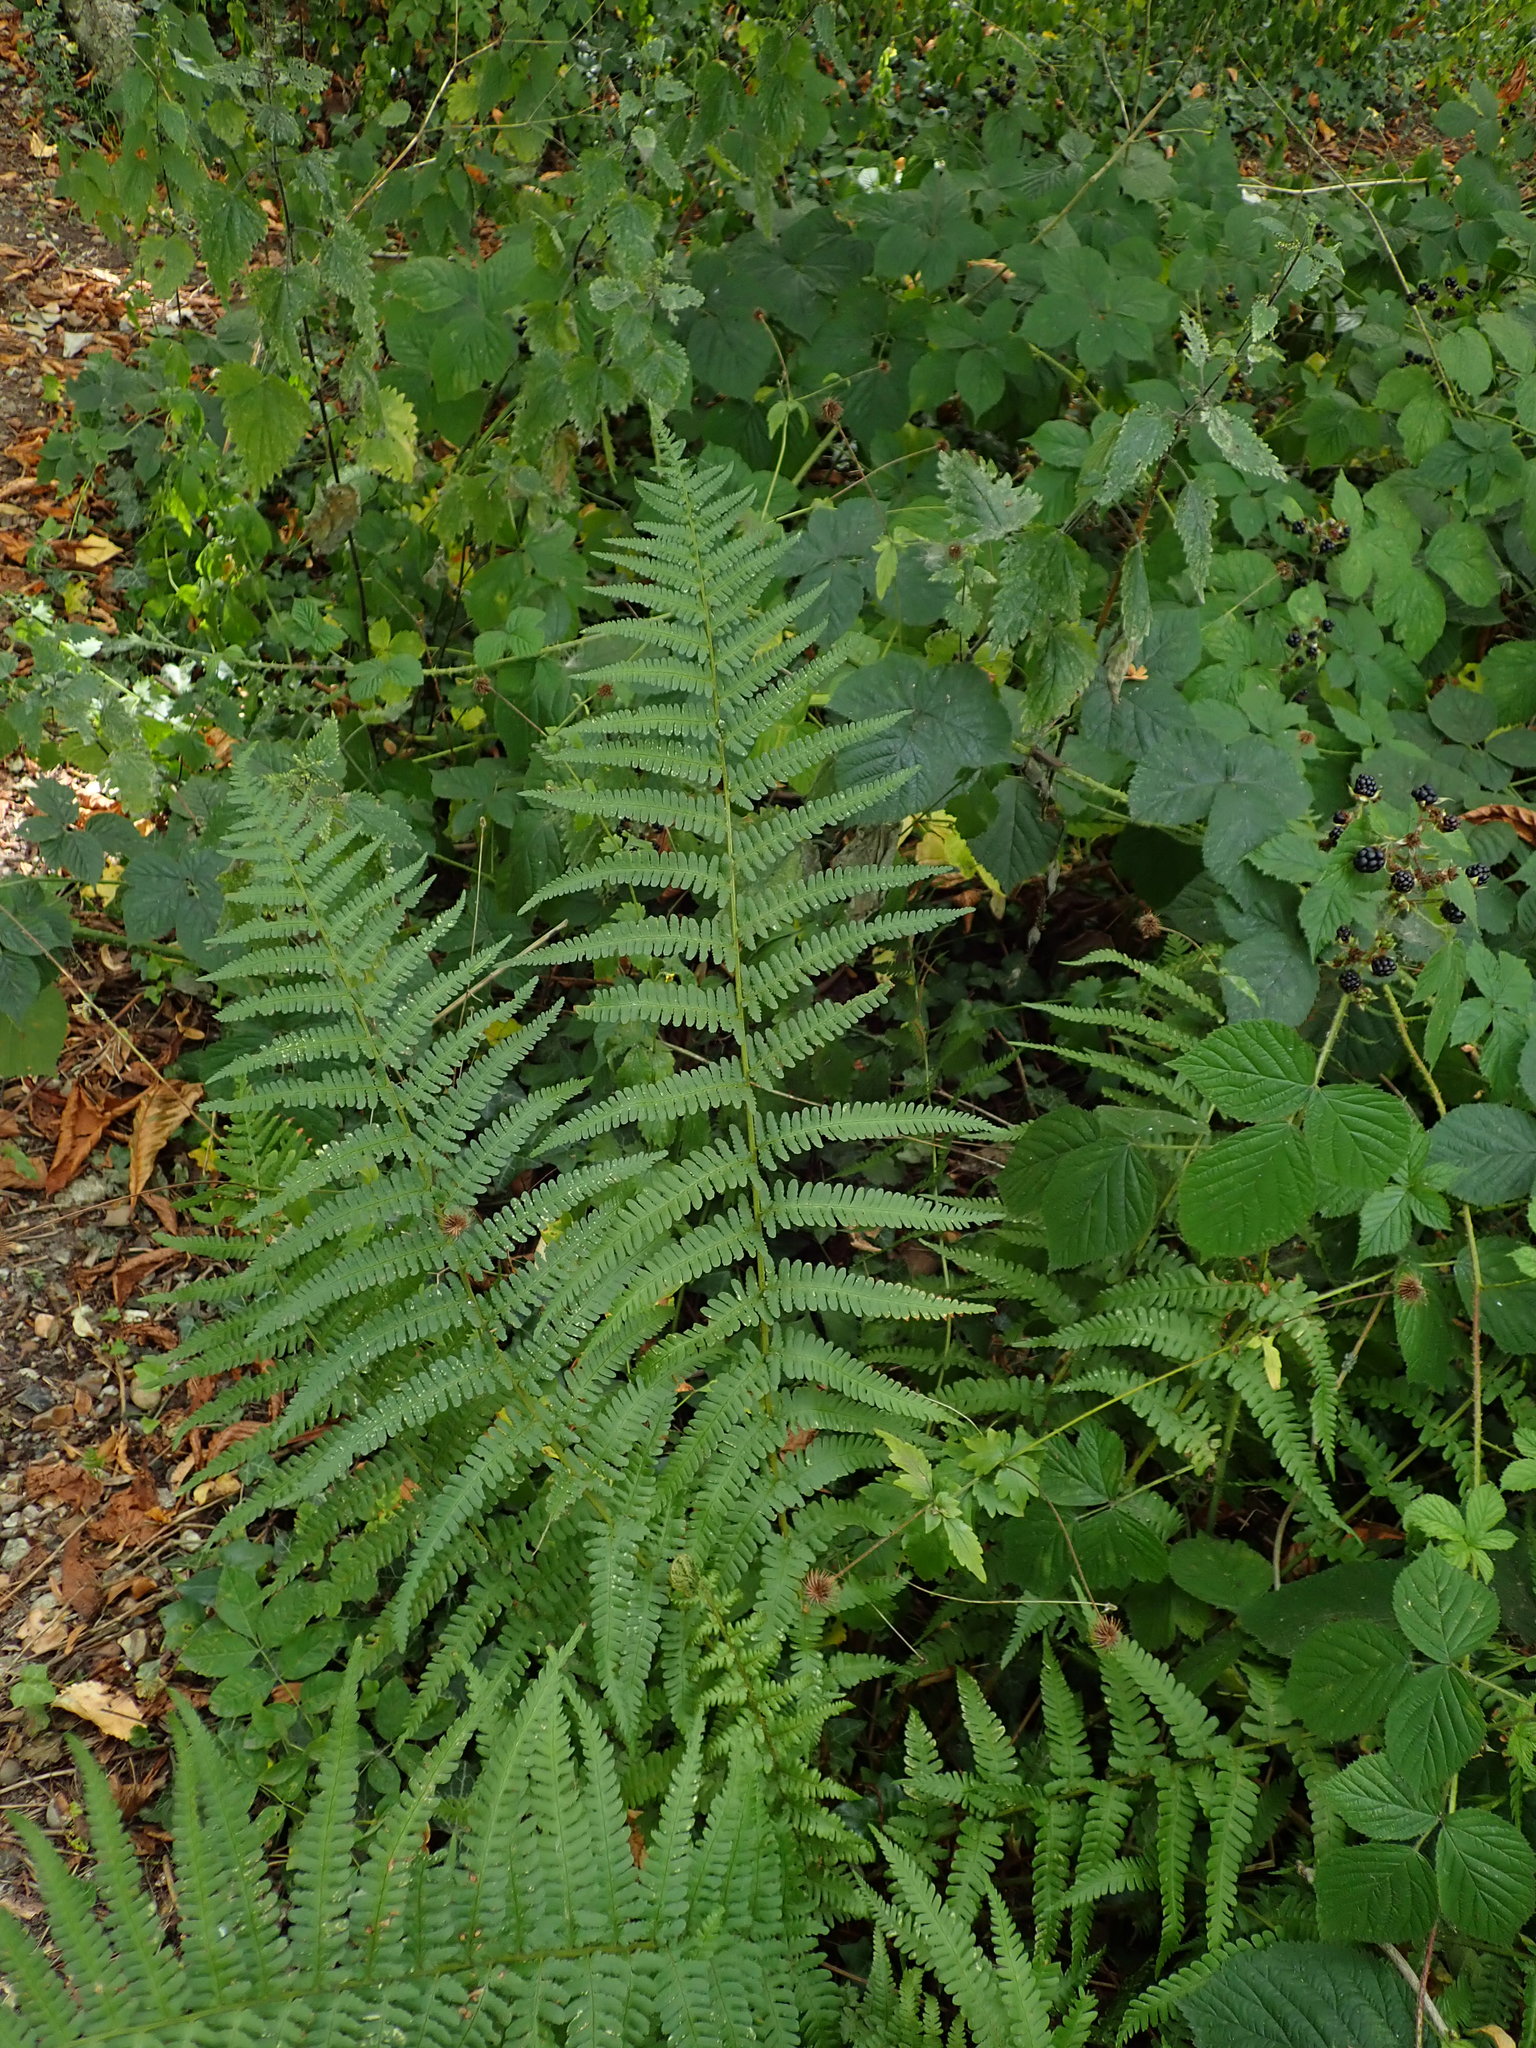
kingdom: Plantae
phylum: Tracheophyta
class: Polypodiopsida
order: Polypodiales
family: Dryopteridaceae
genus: Dryopteris
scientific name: Dryopteris filix-mas
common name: Male fern
